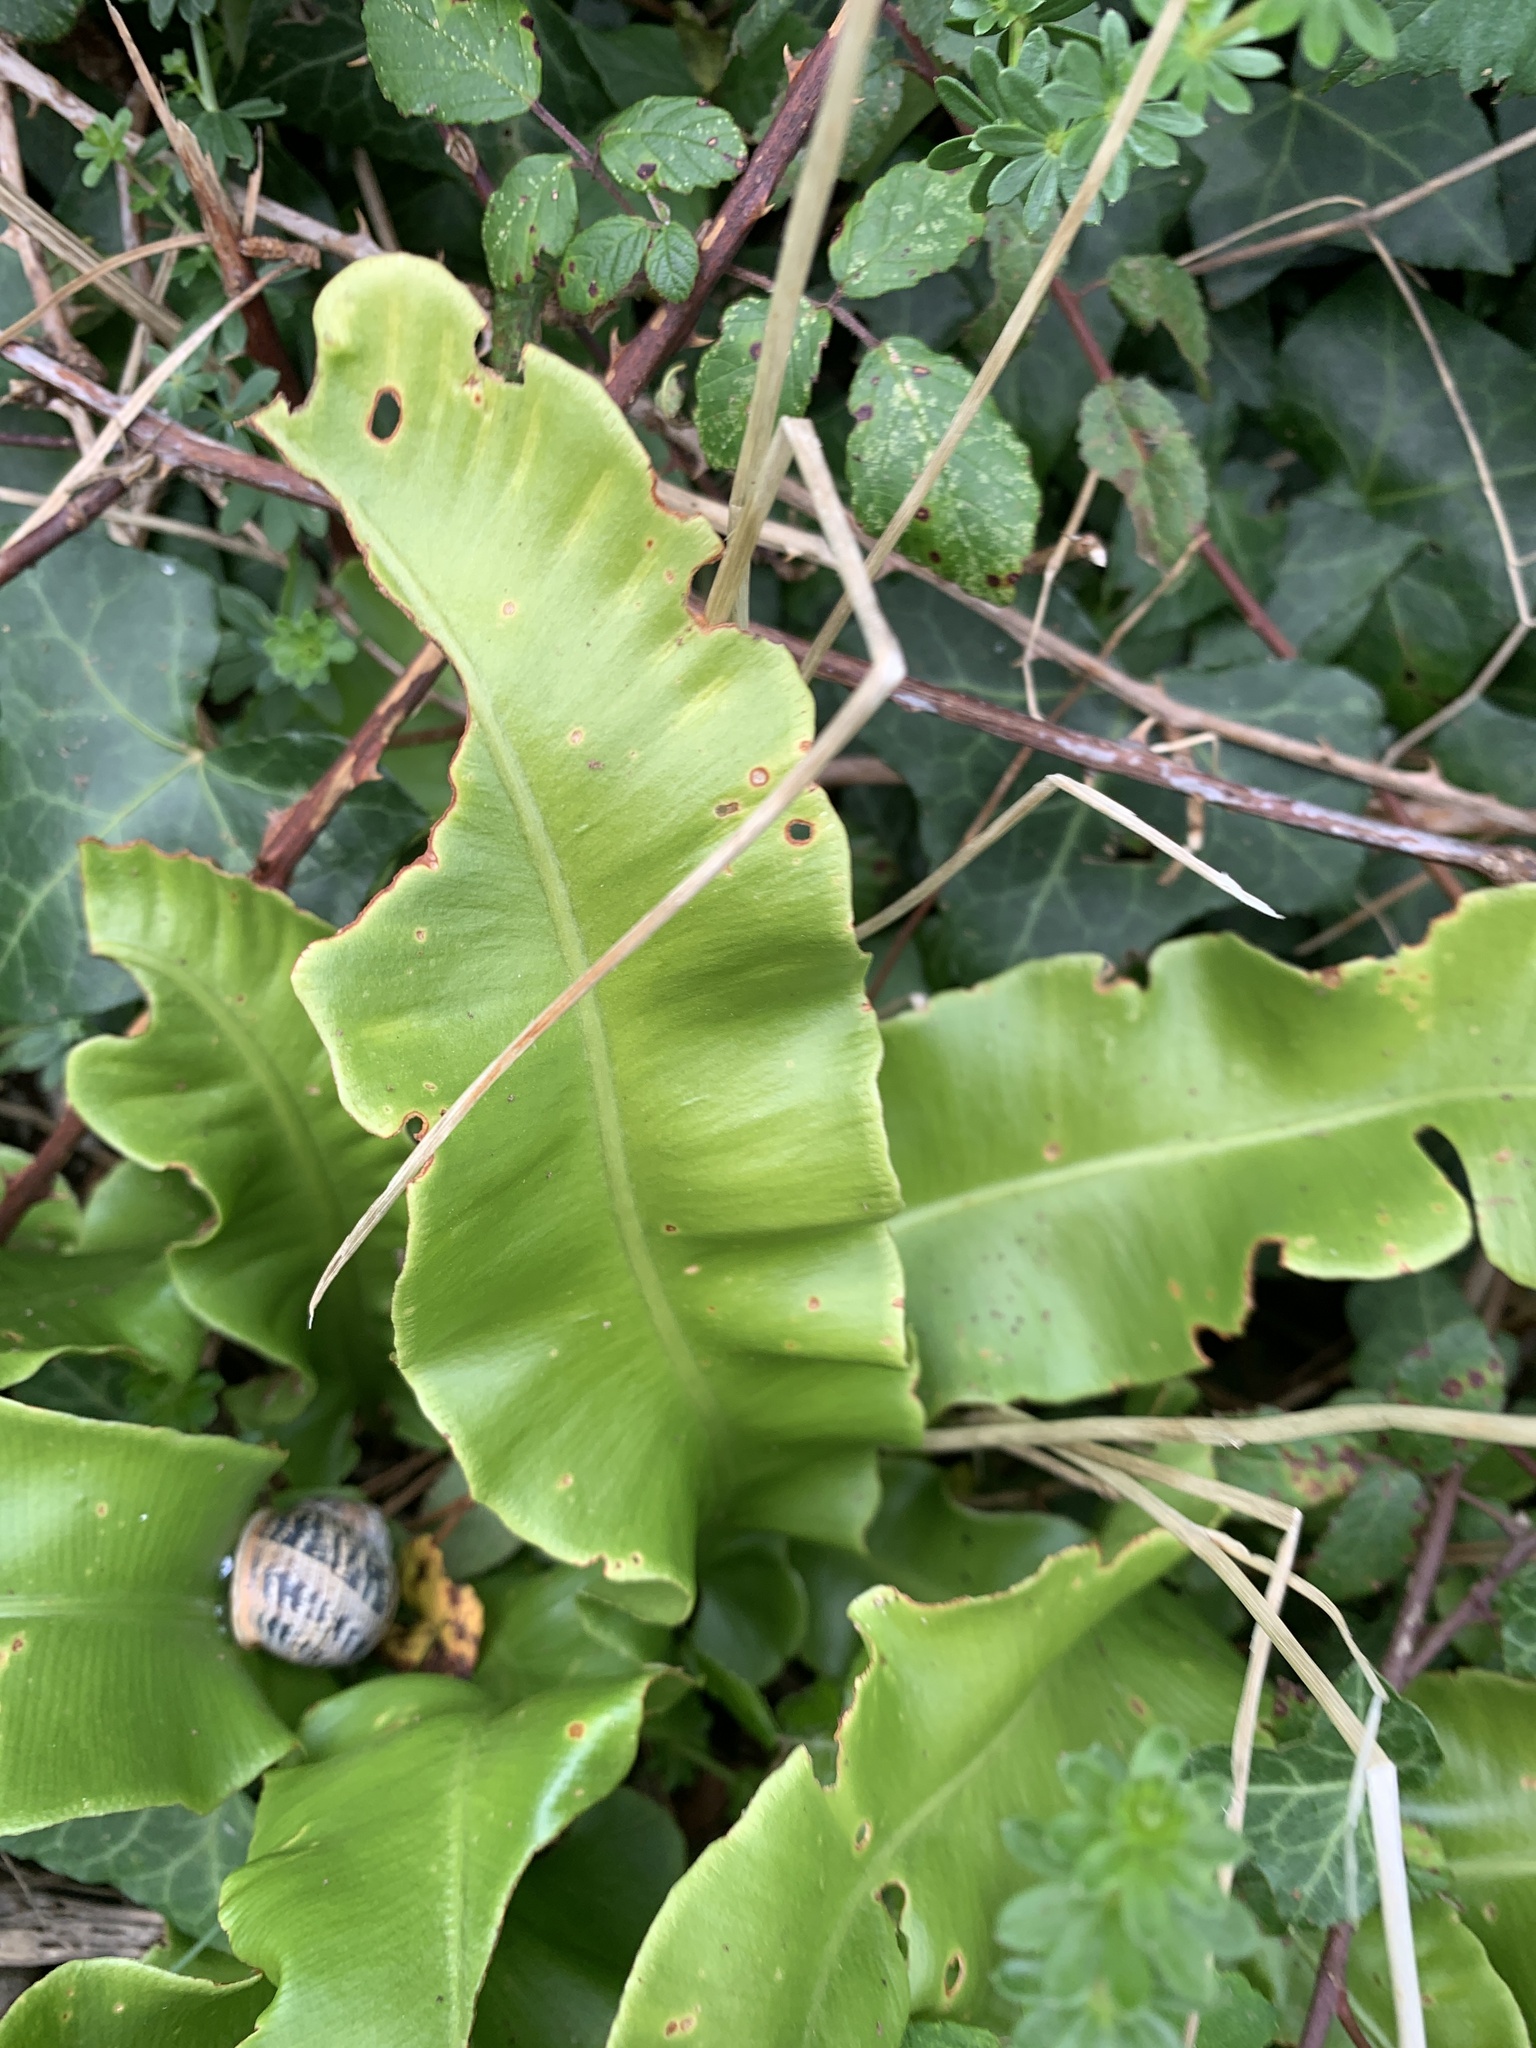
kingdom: Plantae
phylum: Tracheophyta
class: Polypodiopsida
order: Polypodiales
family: Aspleniaceae
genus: Asplenium
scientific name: Asplenium scolopendrium
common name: Hart's-tongue fern
